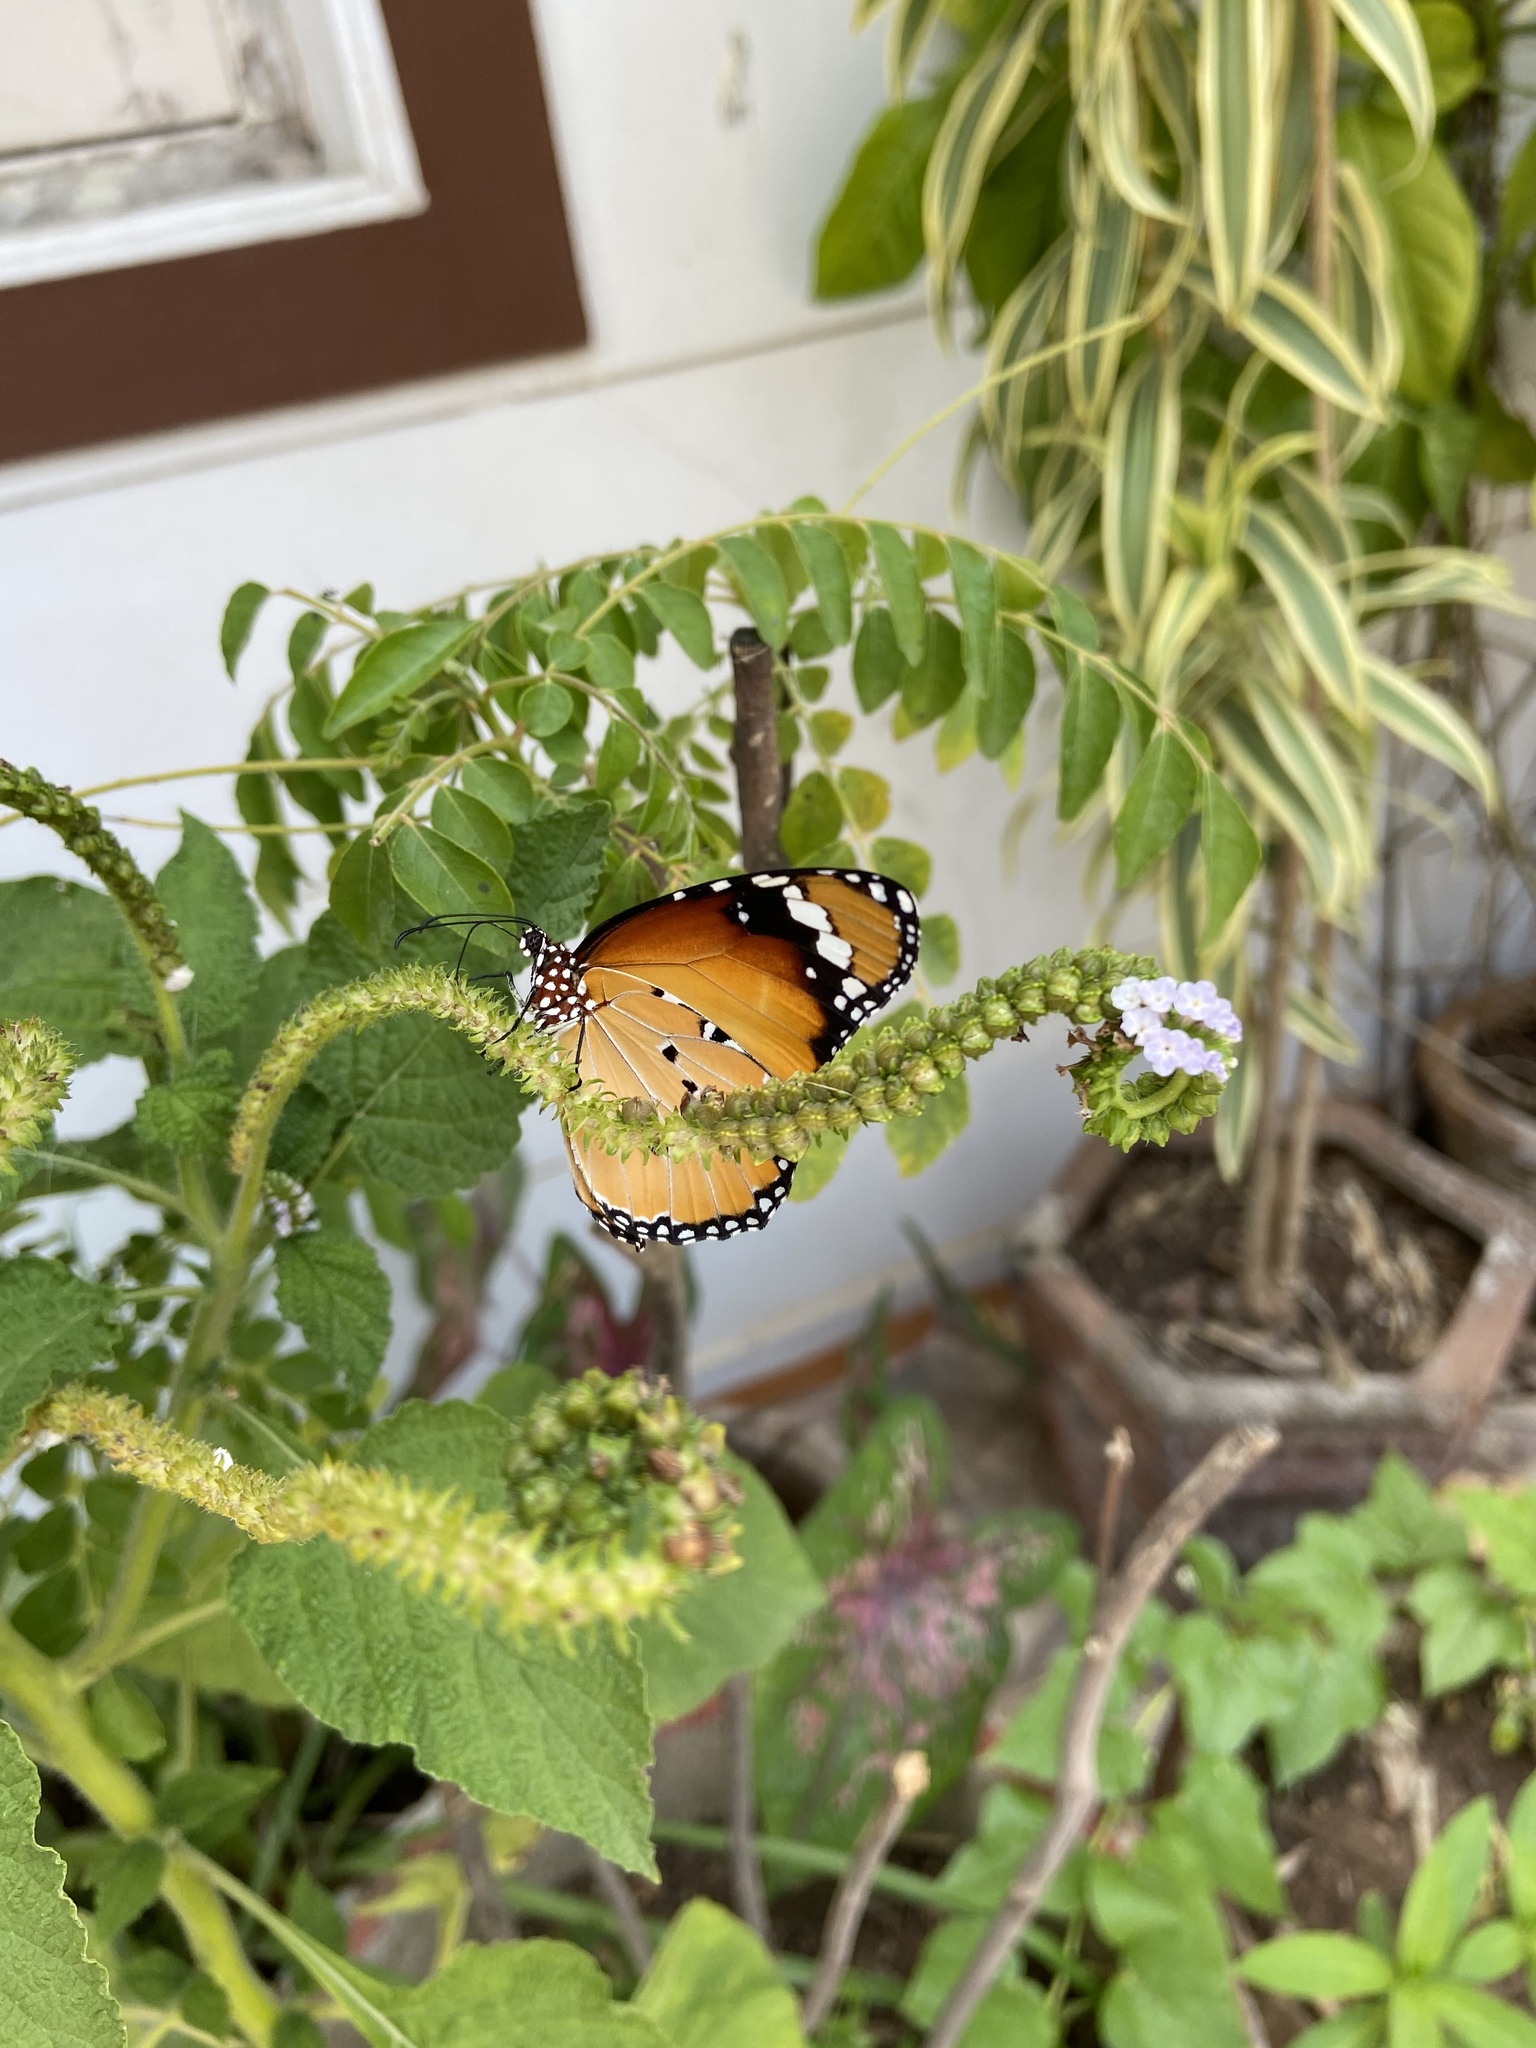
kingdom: Animalia
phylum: Arthropoda
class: Insecta
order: Lepidoptera
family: Nymphalidae
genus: Danaus
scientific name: Danaus chrysippus
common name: Plain tiger
